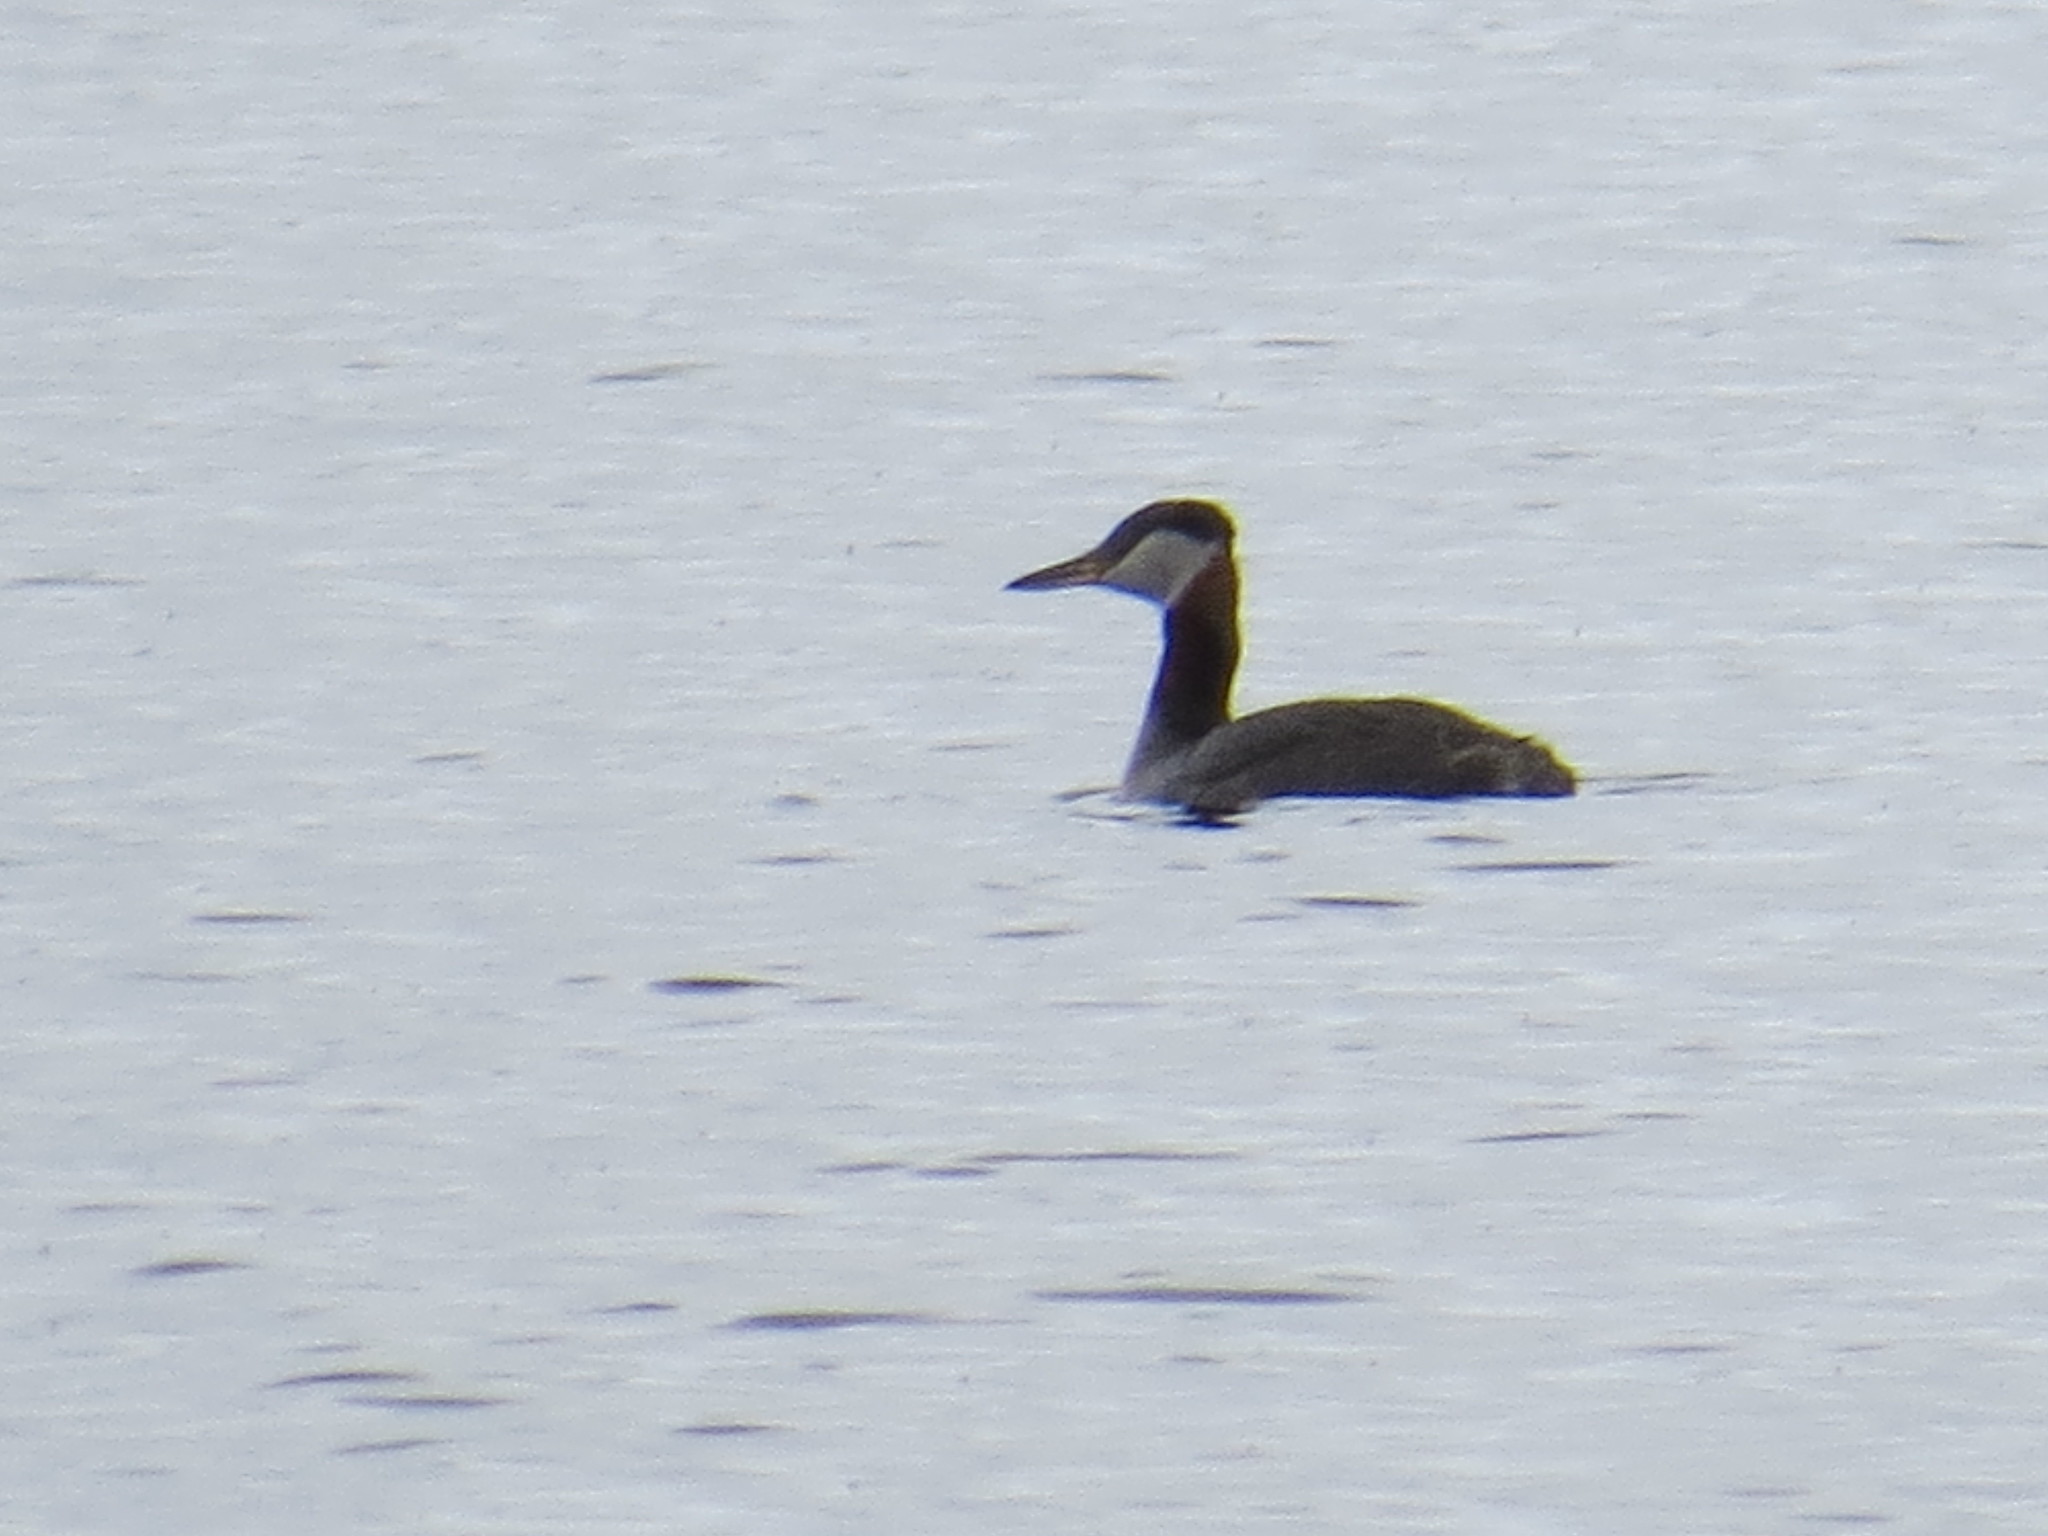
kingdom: Animalia
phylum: Chordata
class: Aves
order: Podicipediformes
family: Podicipedidae
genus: Podiceps
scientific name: Podiceps grisegena
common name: Red-necked grebe
